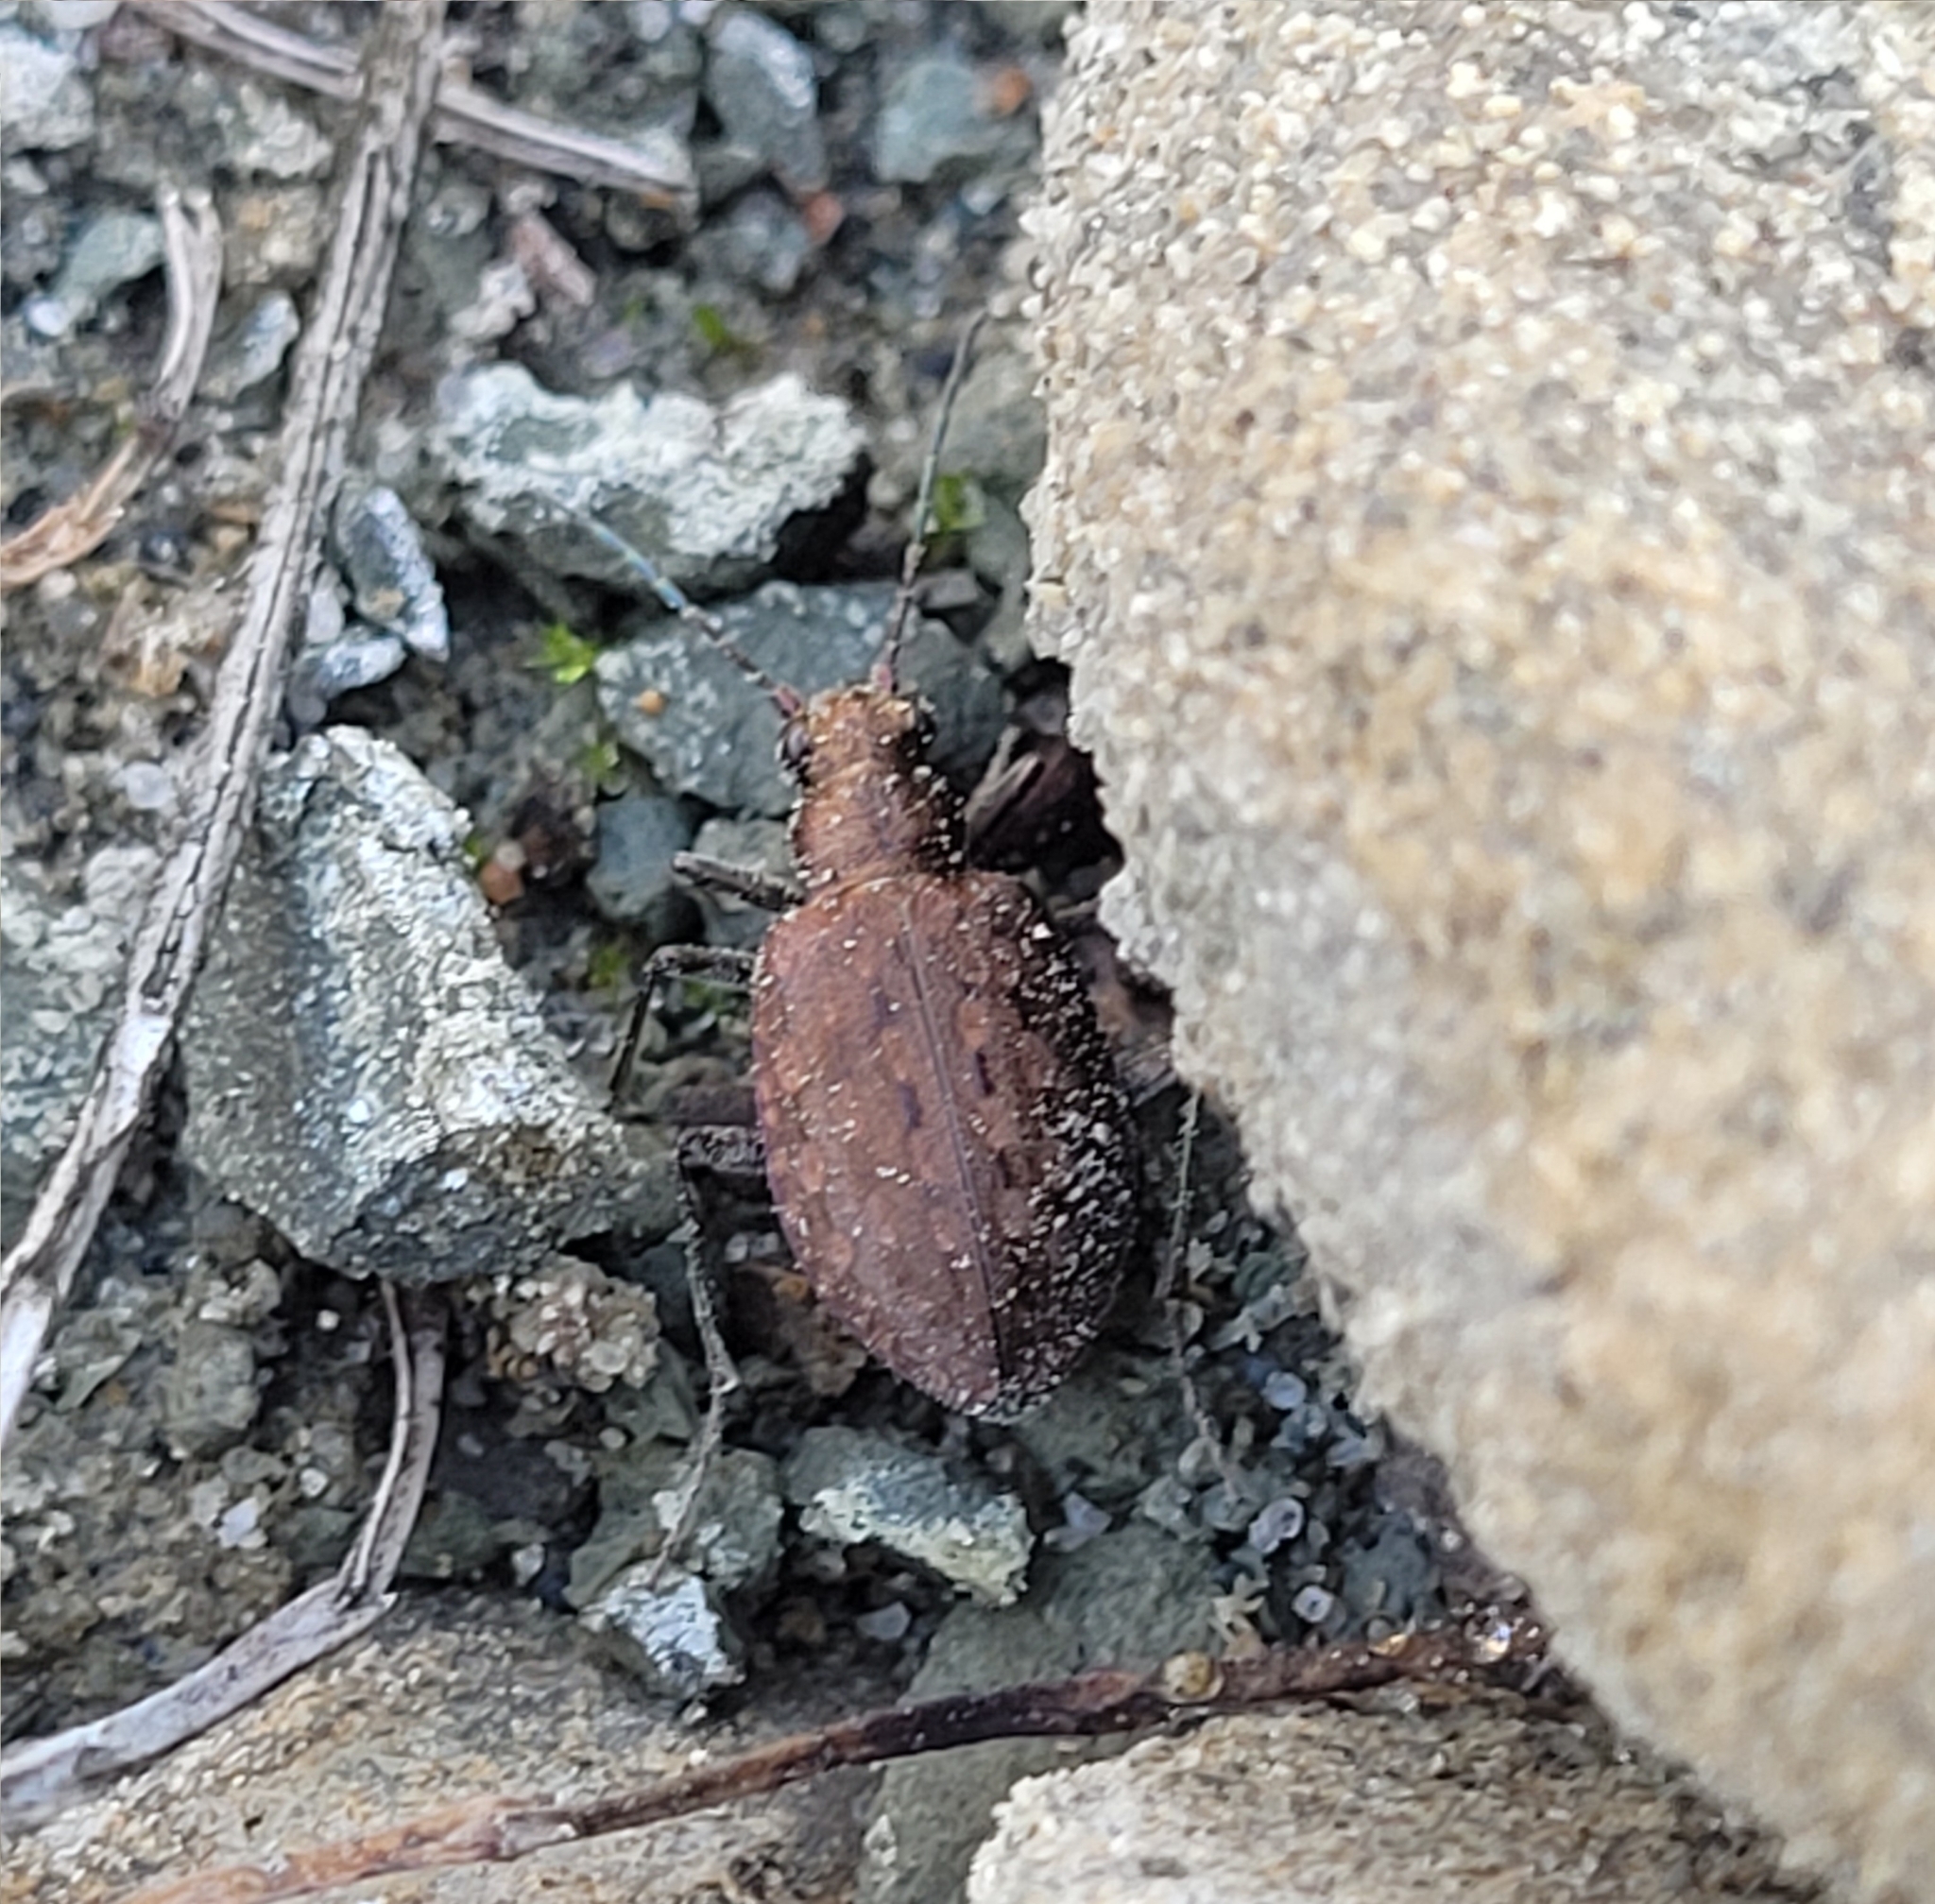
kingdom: Animalia
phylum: Arthropoda
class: Insecta
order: Coleoptera
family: Carabidae
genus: Opisthius
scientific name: Opisthius richardsoni
